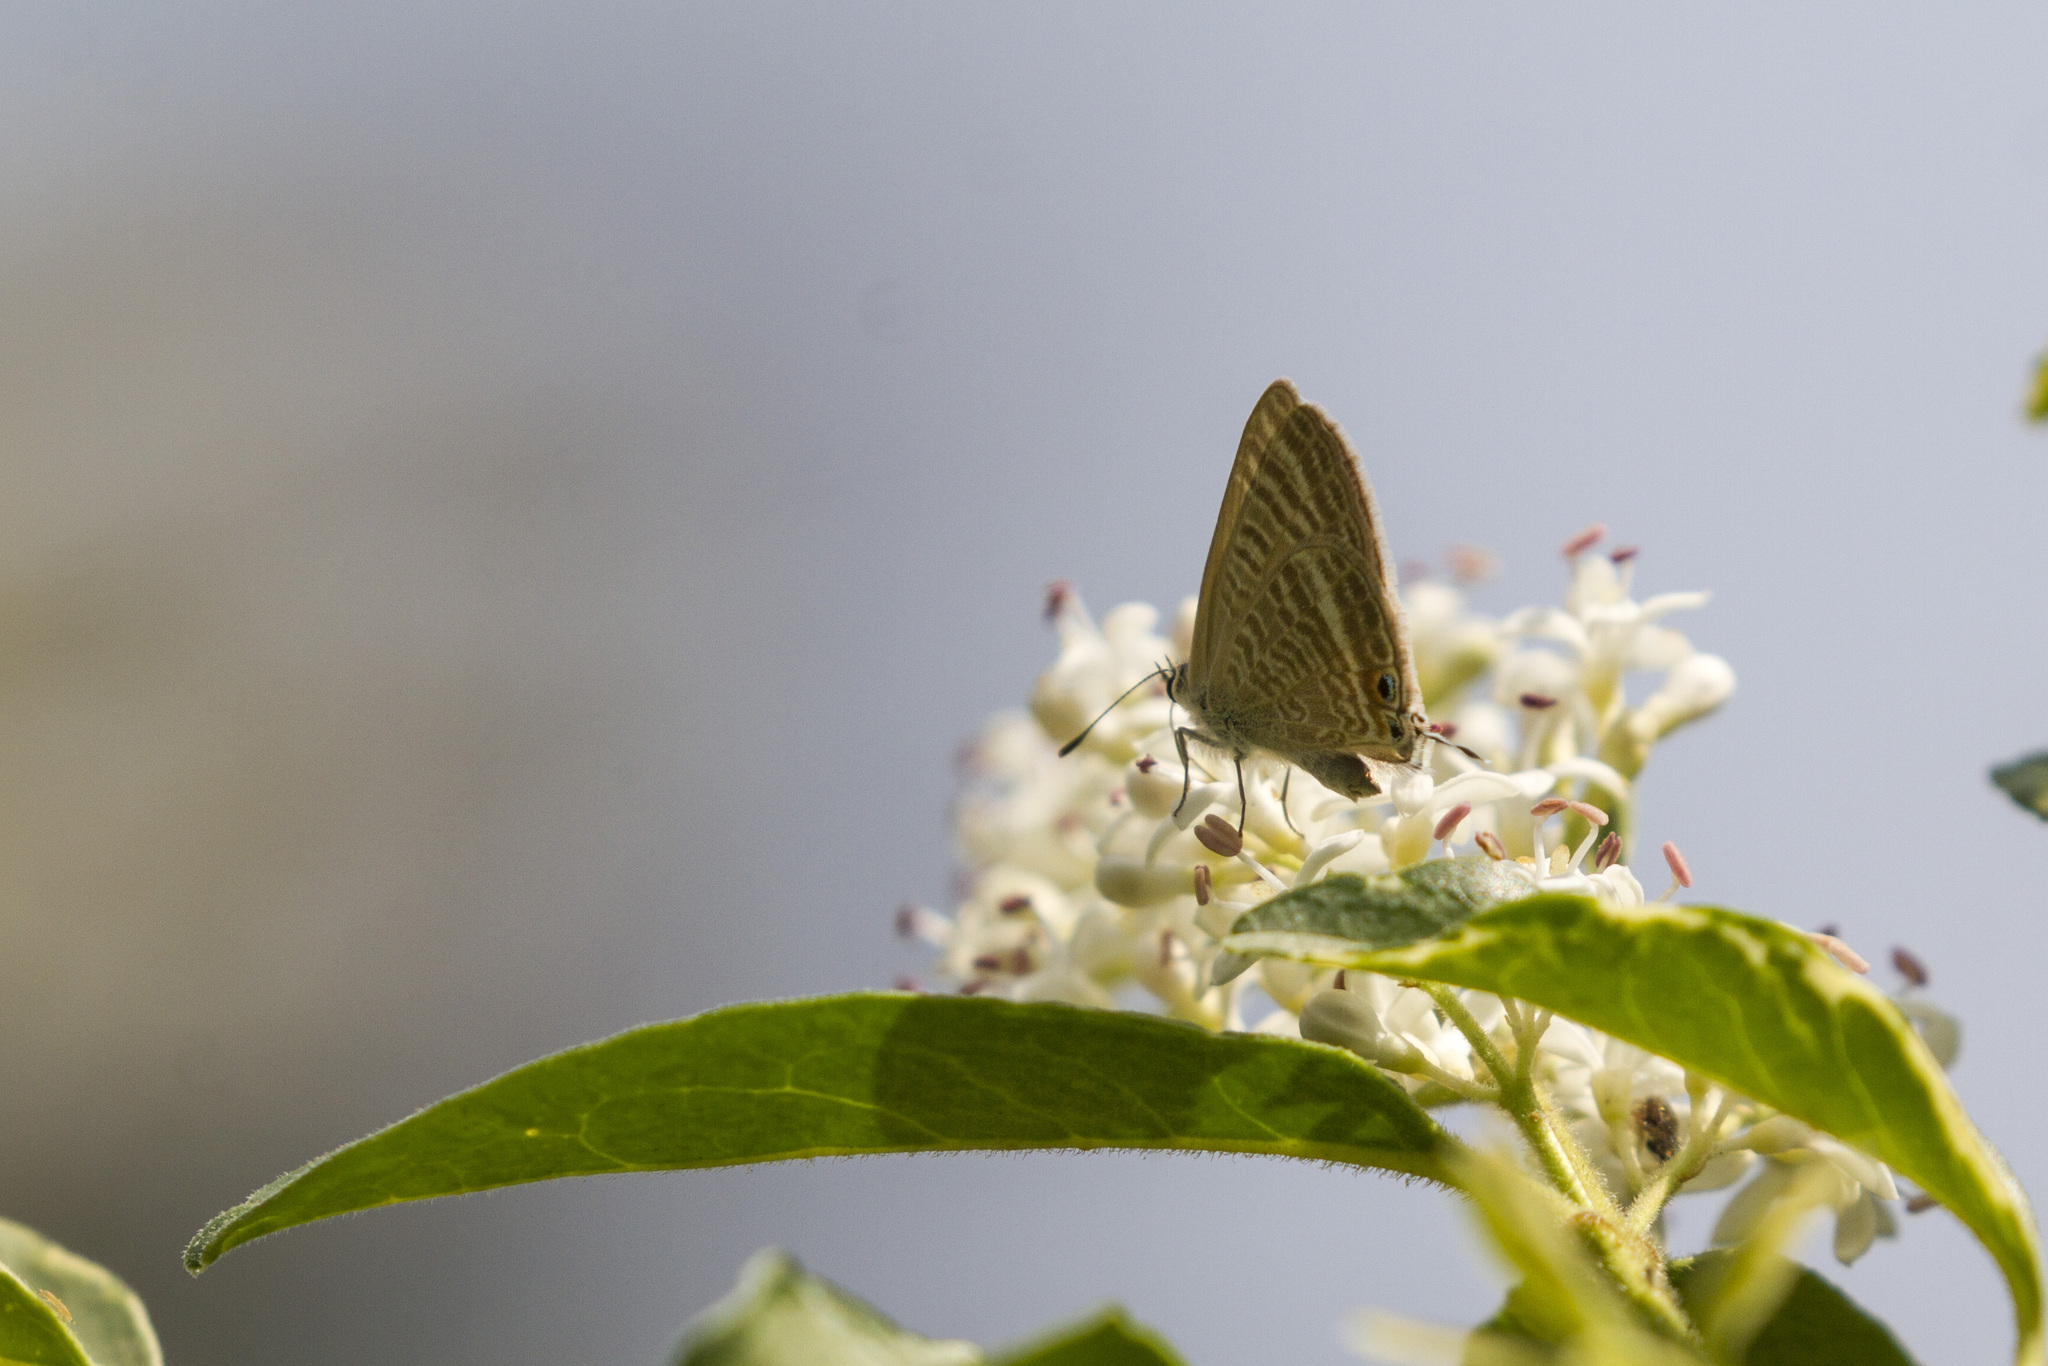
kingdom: Animalia
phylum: Arthropoda
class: Insecta
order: Lepidoptera
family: Lycaenidae
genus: Lampides
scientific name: Lampides boeticus
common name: Long-tailed blue
